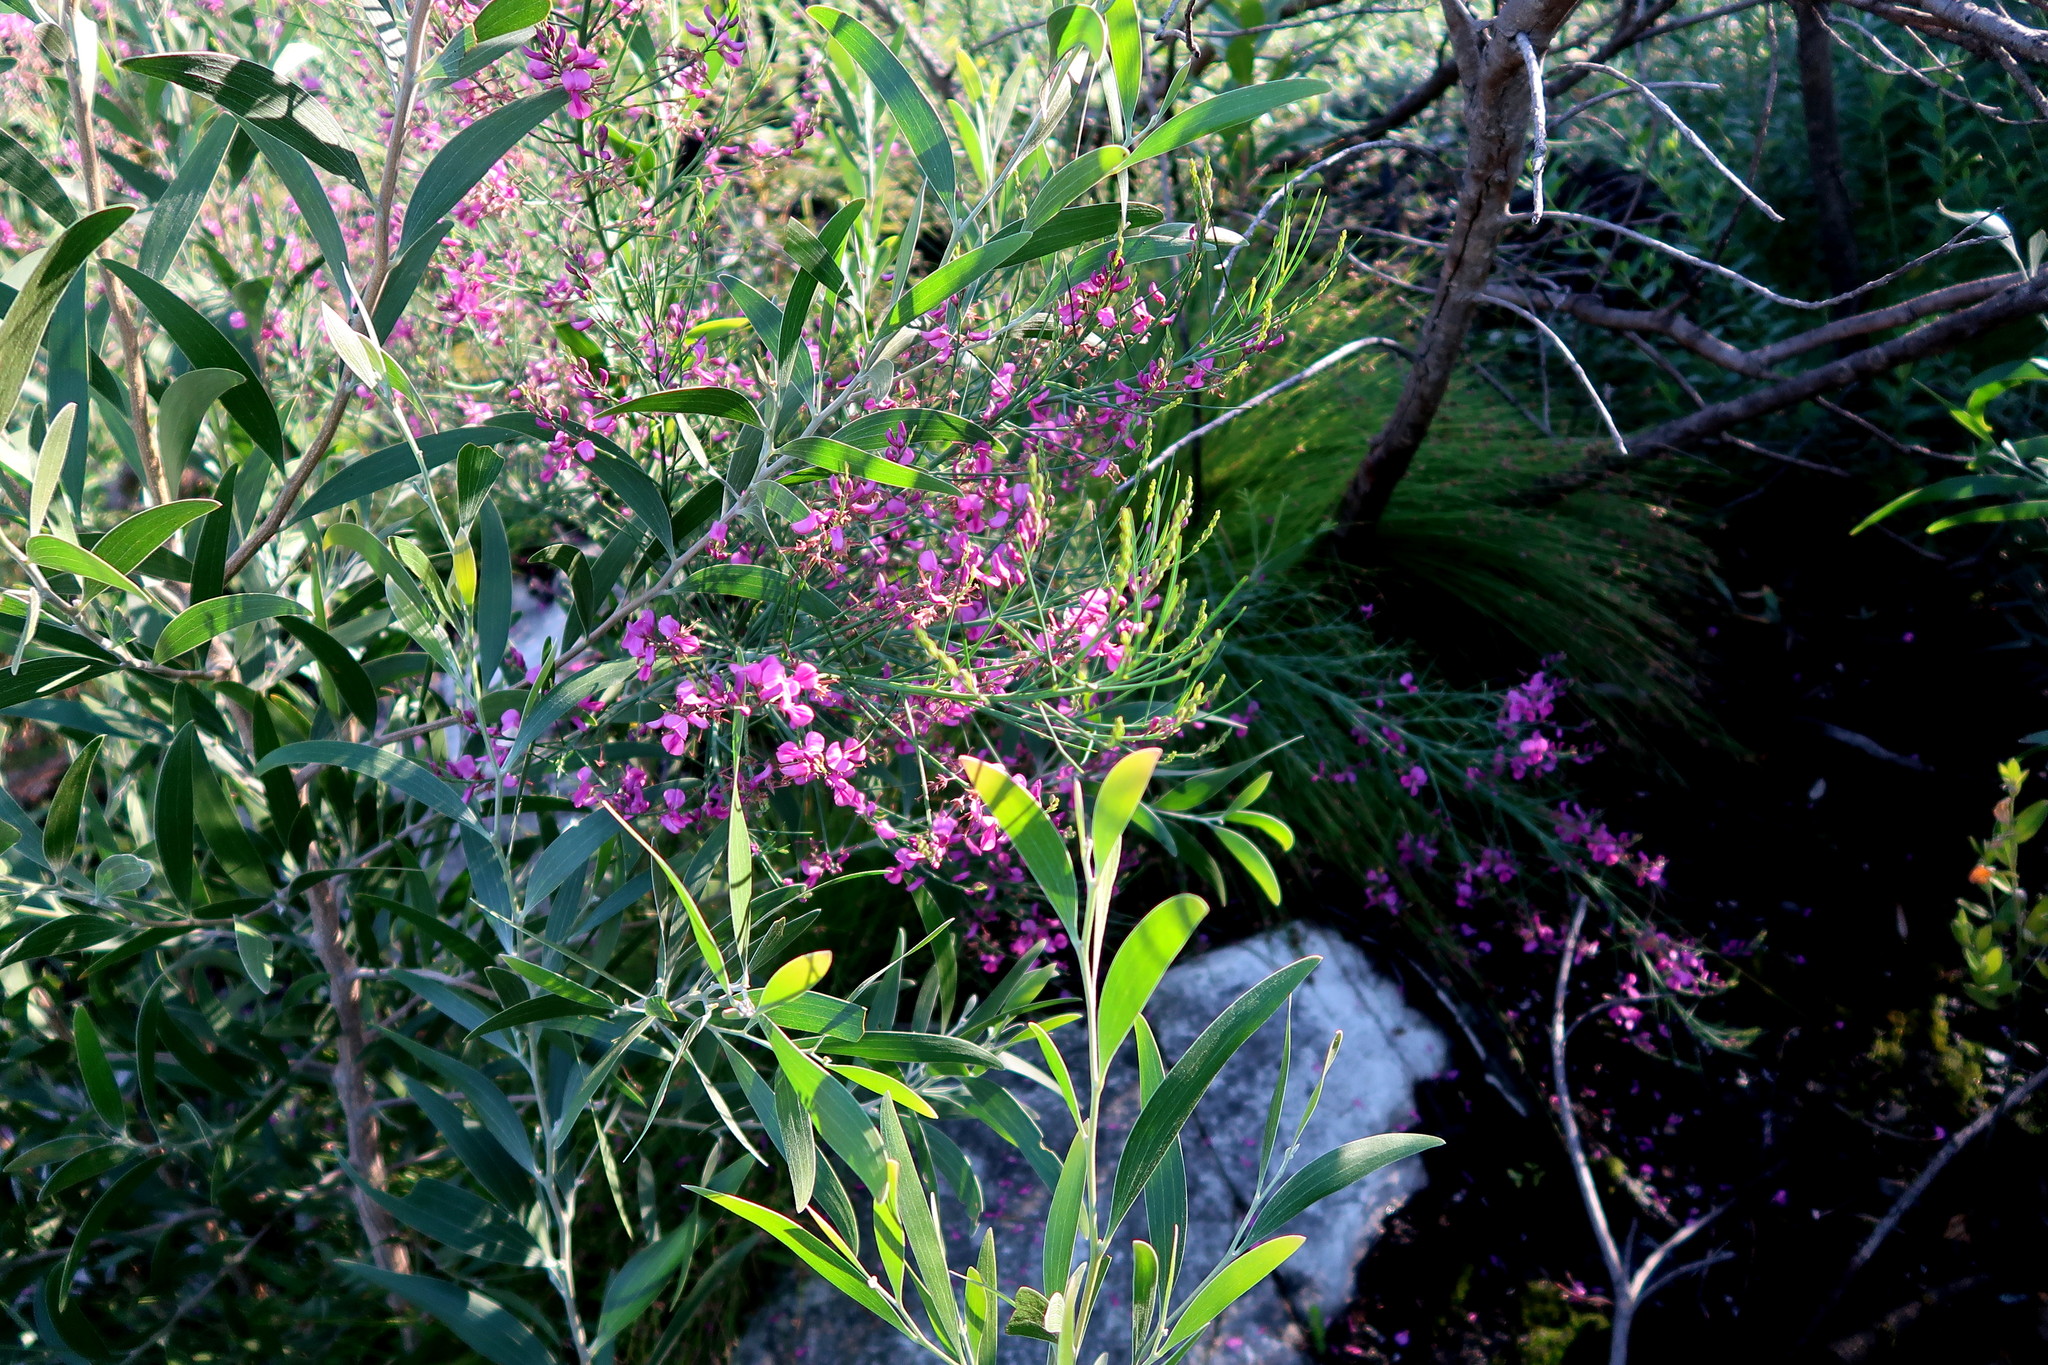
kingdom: Plantae
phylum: Tracheophyta
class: Magnoliopsida
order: Fabales
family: Fabaceae
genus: Indigofera
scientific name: Indigofera filifolia
